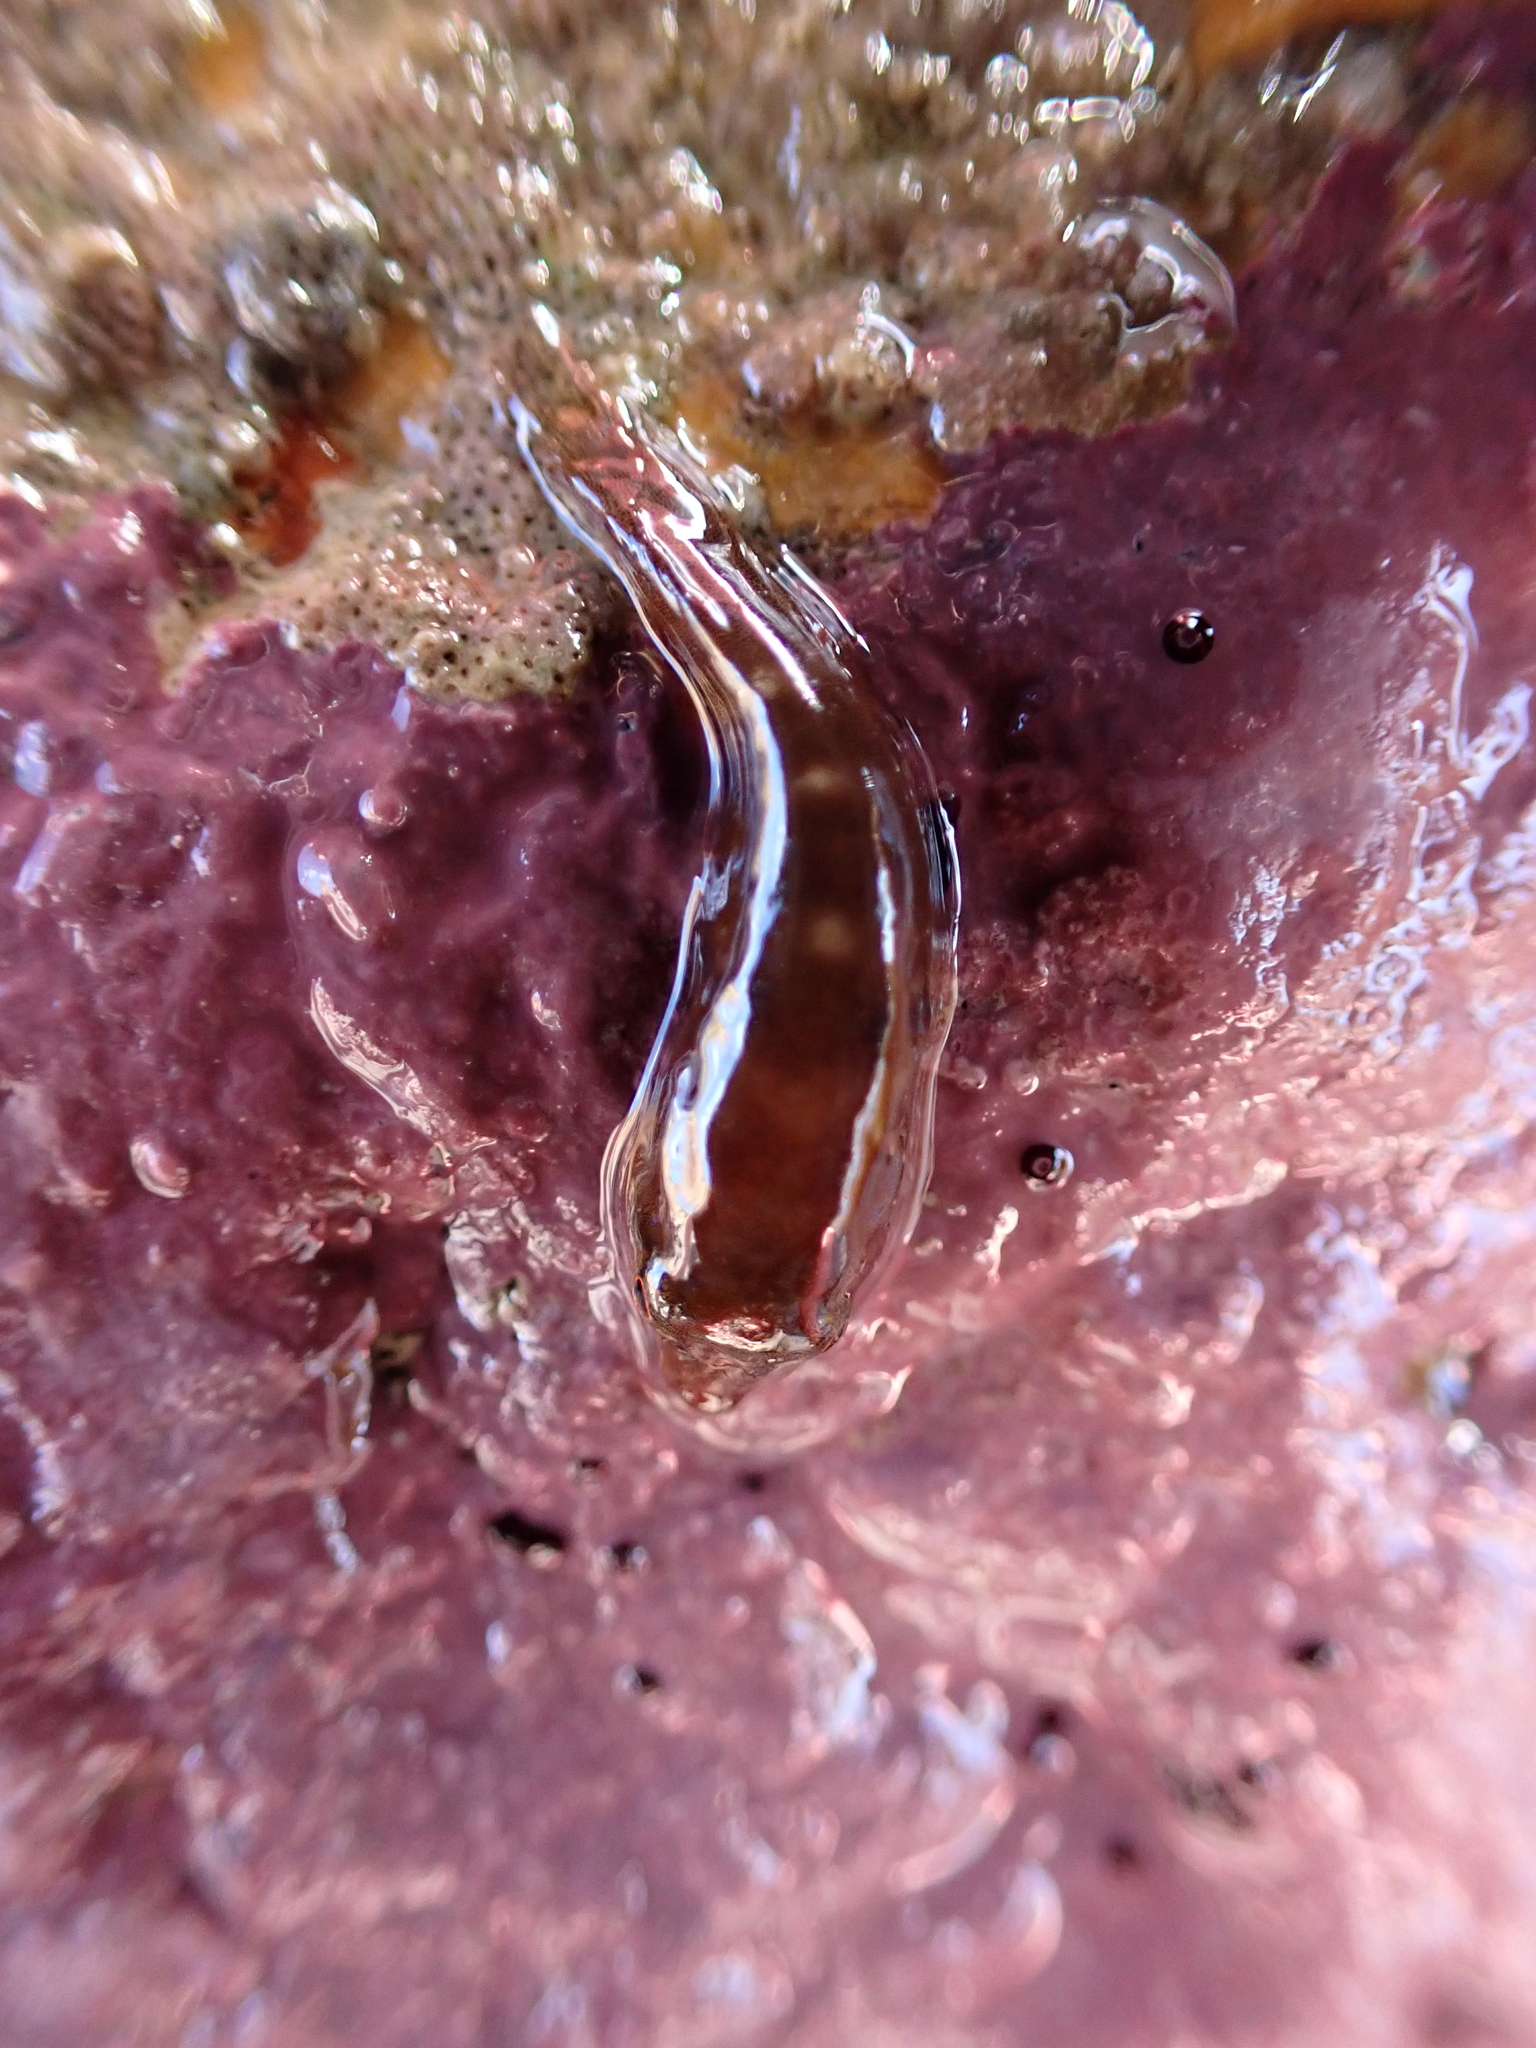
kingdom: Animalia
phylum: Chordata
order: Gobiesociformes
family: Gobiesocidae
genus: Dellichthys
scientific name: Dellichthys trnskii
